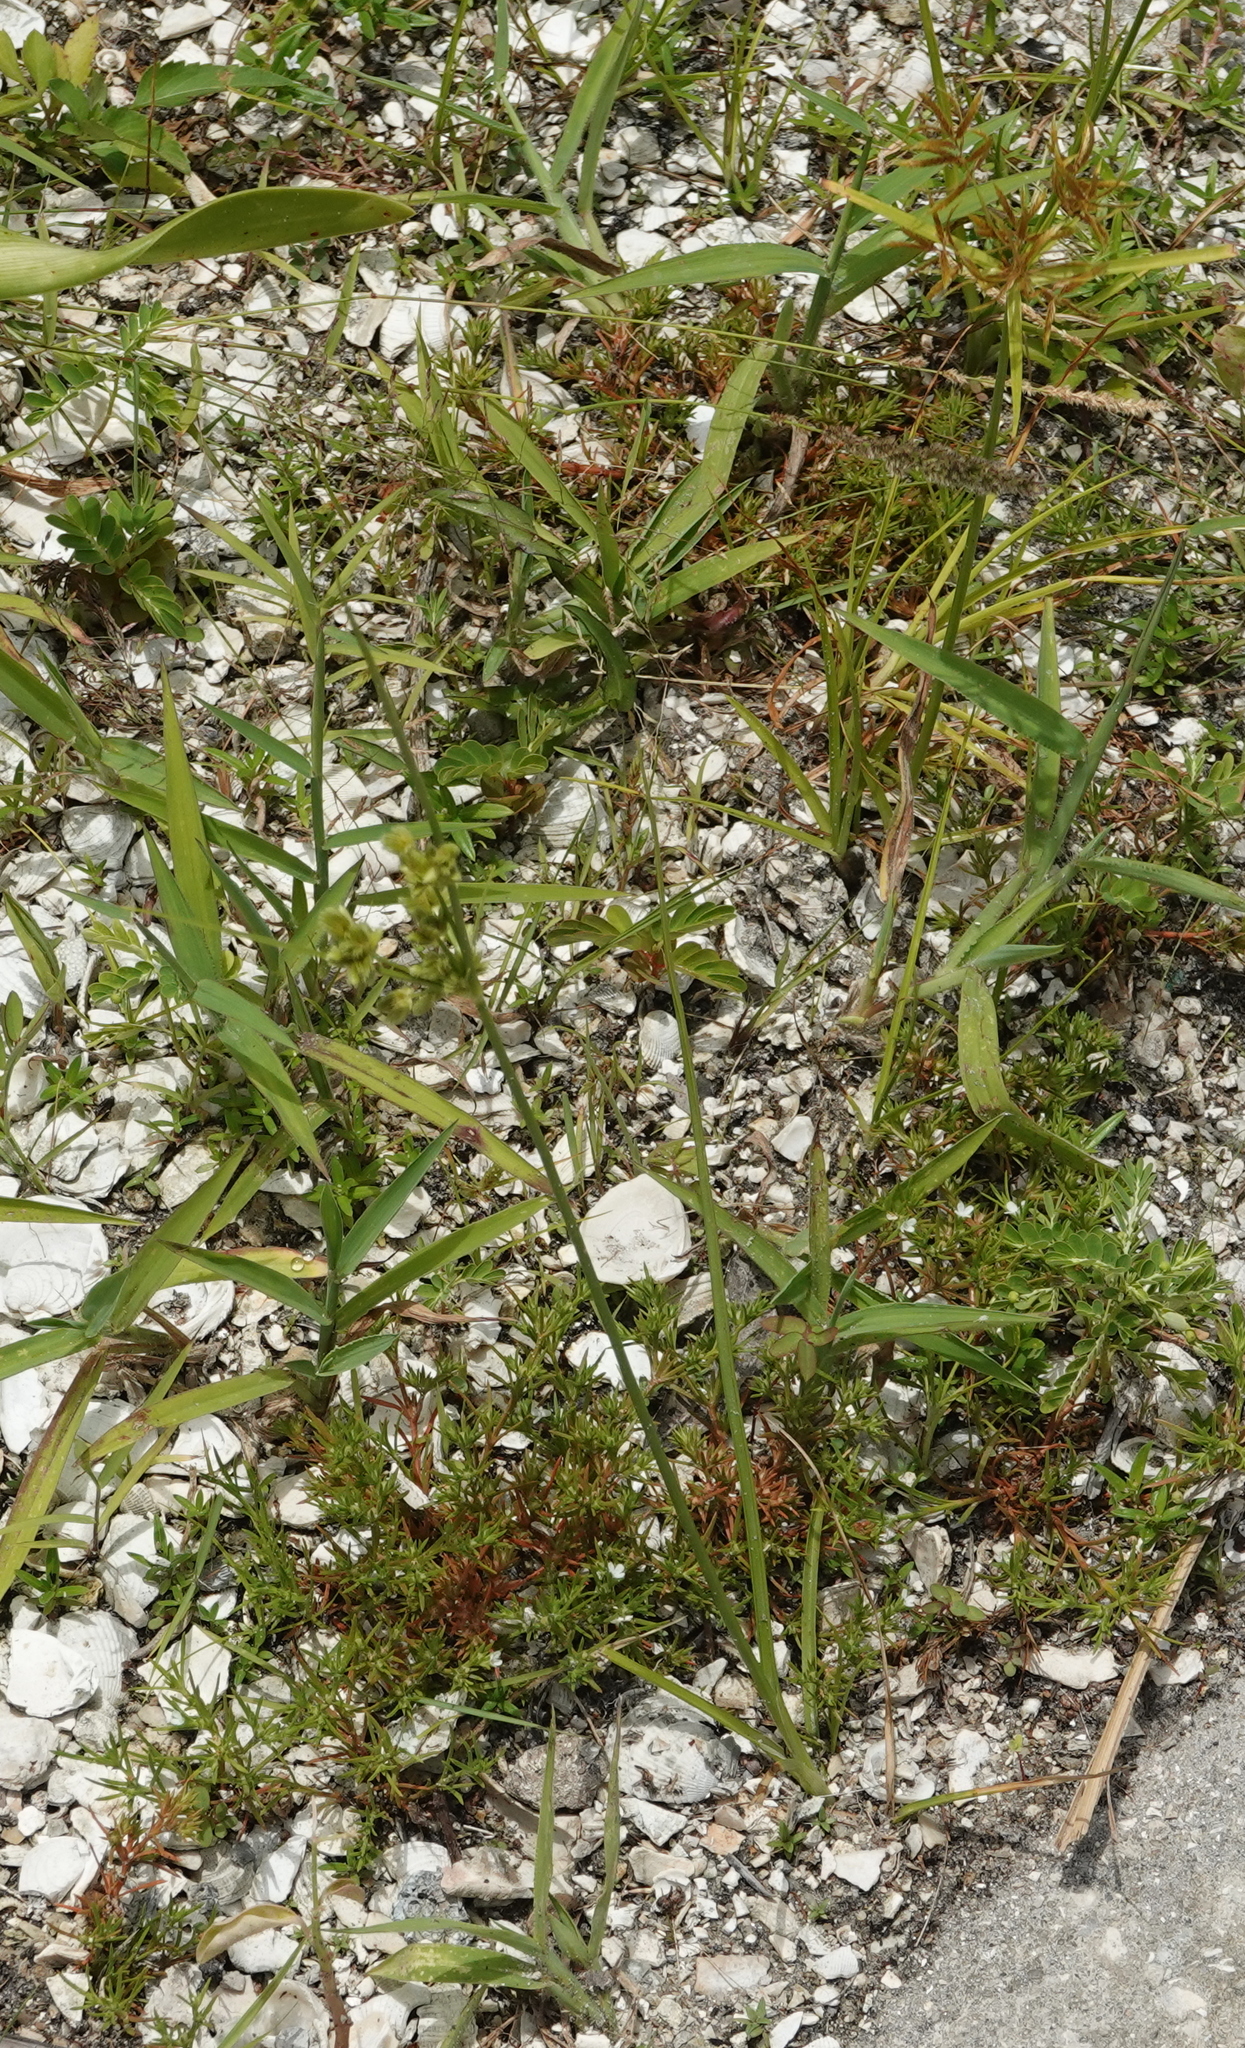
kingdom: Plantae
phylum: Tracheophyta
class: Liliopsida
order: Poales
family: Cyperaceae
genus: Cyperus
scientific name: Cyperus virens
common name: Green flatsedge
